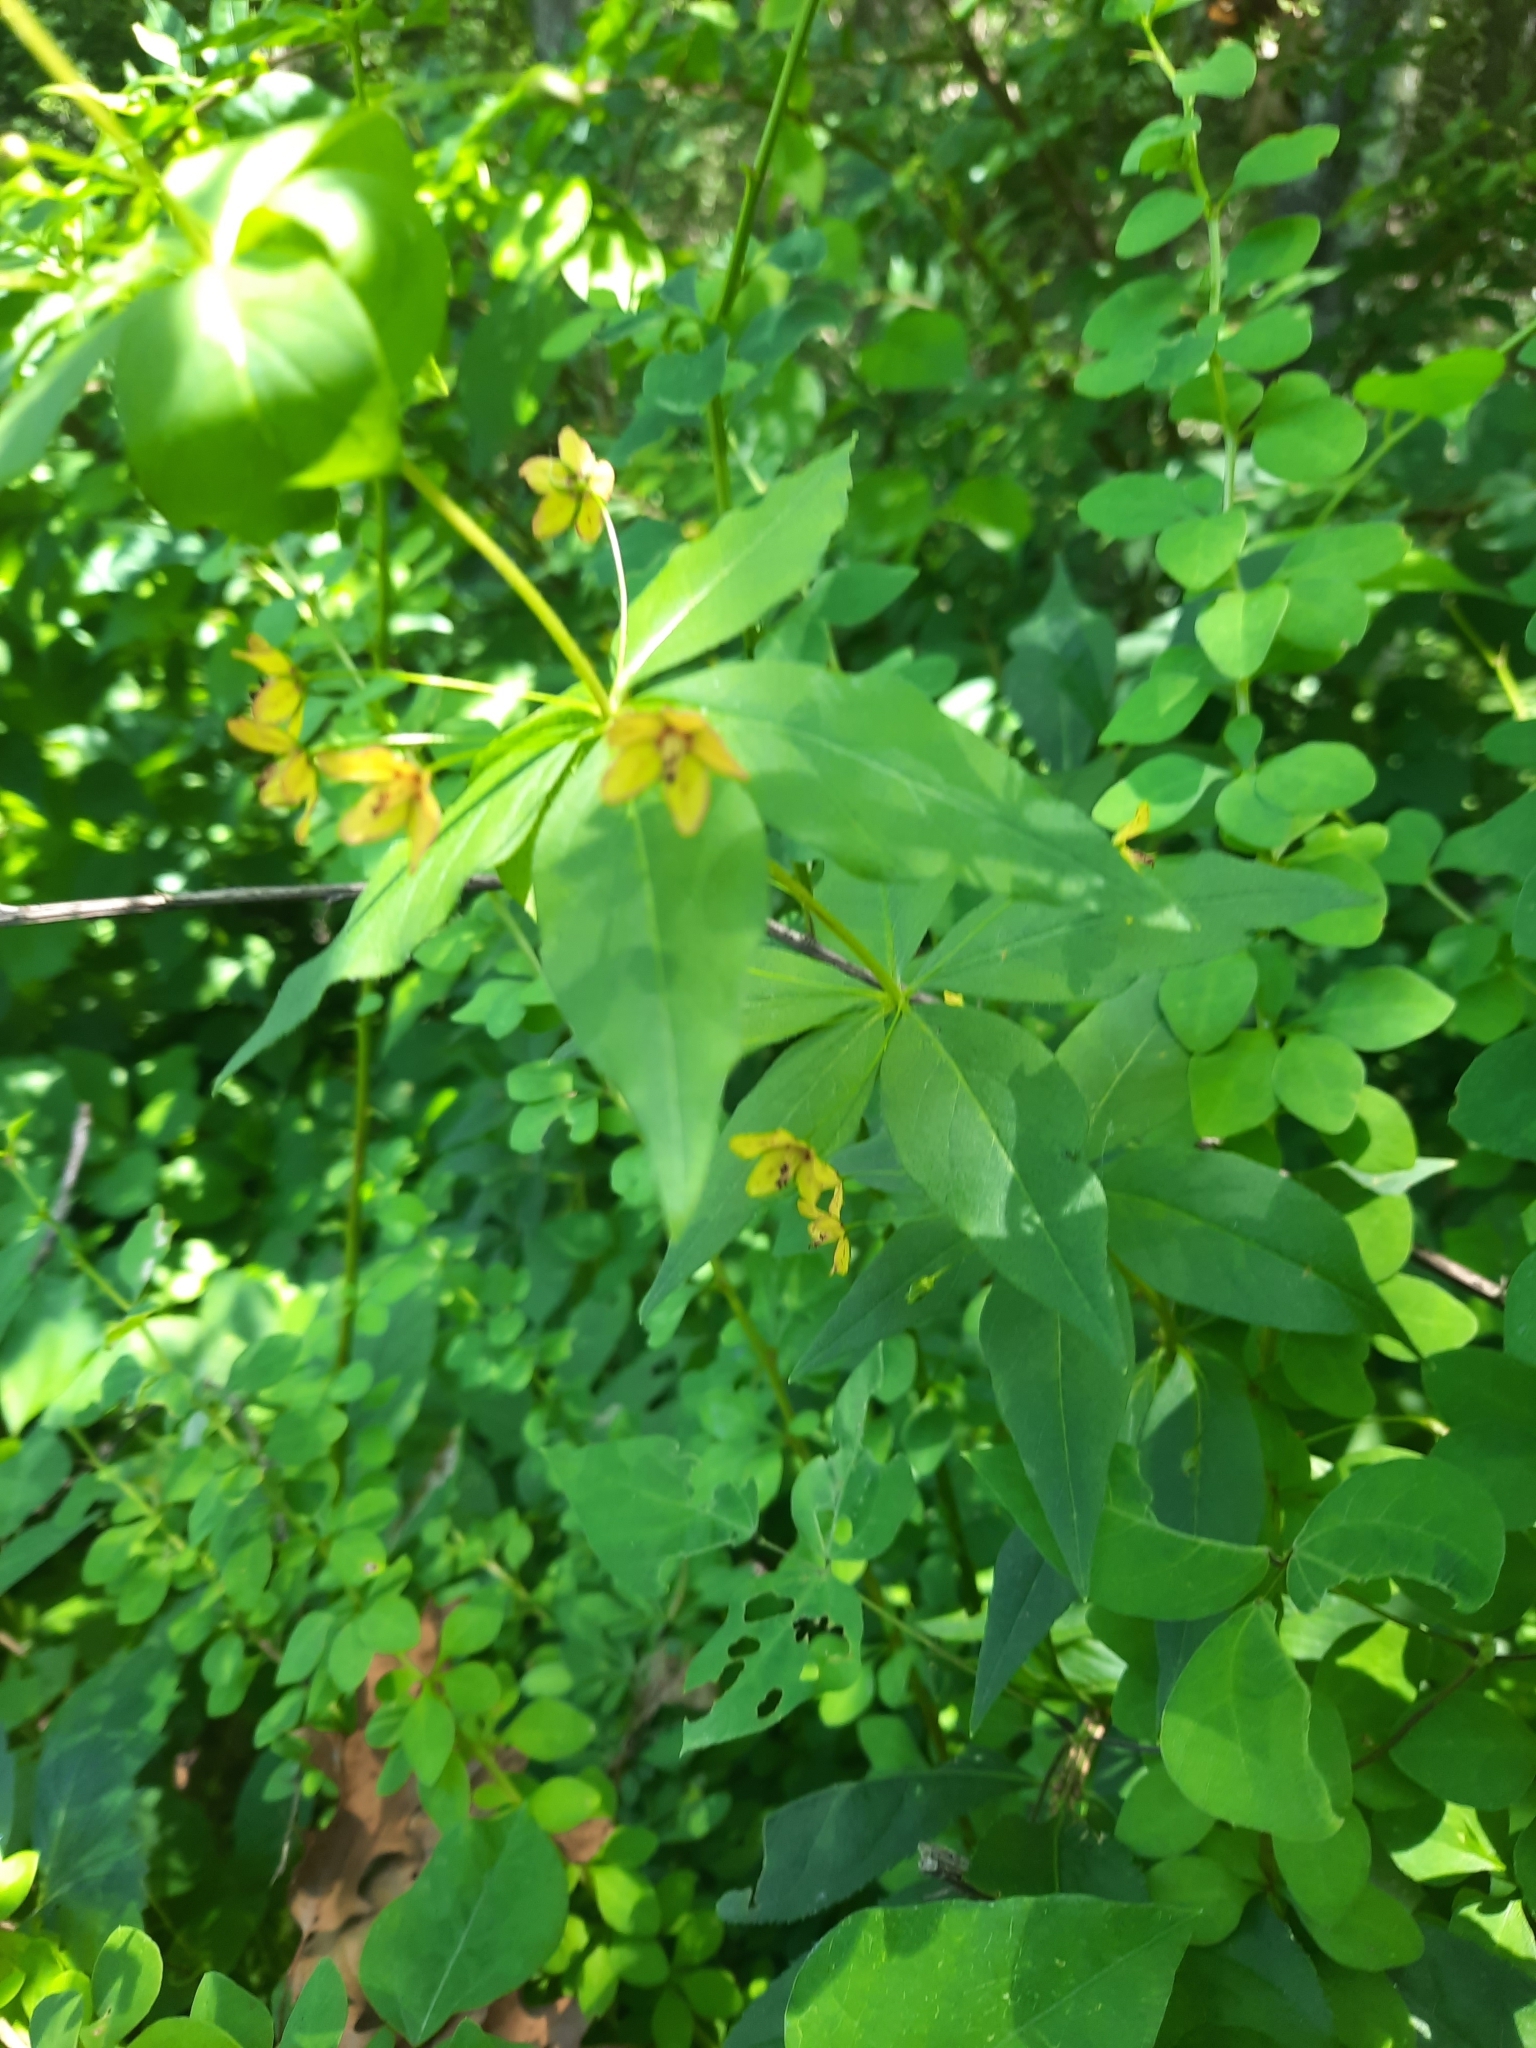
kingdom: Plantae
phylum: Tracheophyta
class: Magnoliopsida
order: Ericales
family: Primulaceae
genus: Lysimachia
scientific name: Lysimachia quadrifolia
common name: Whorled loosestrife
